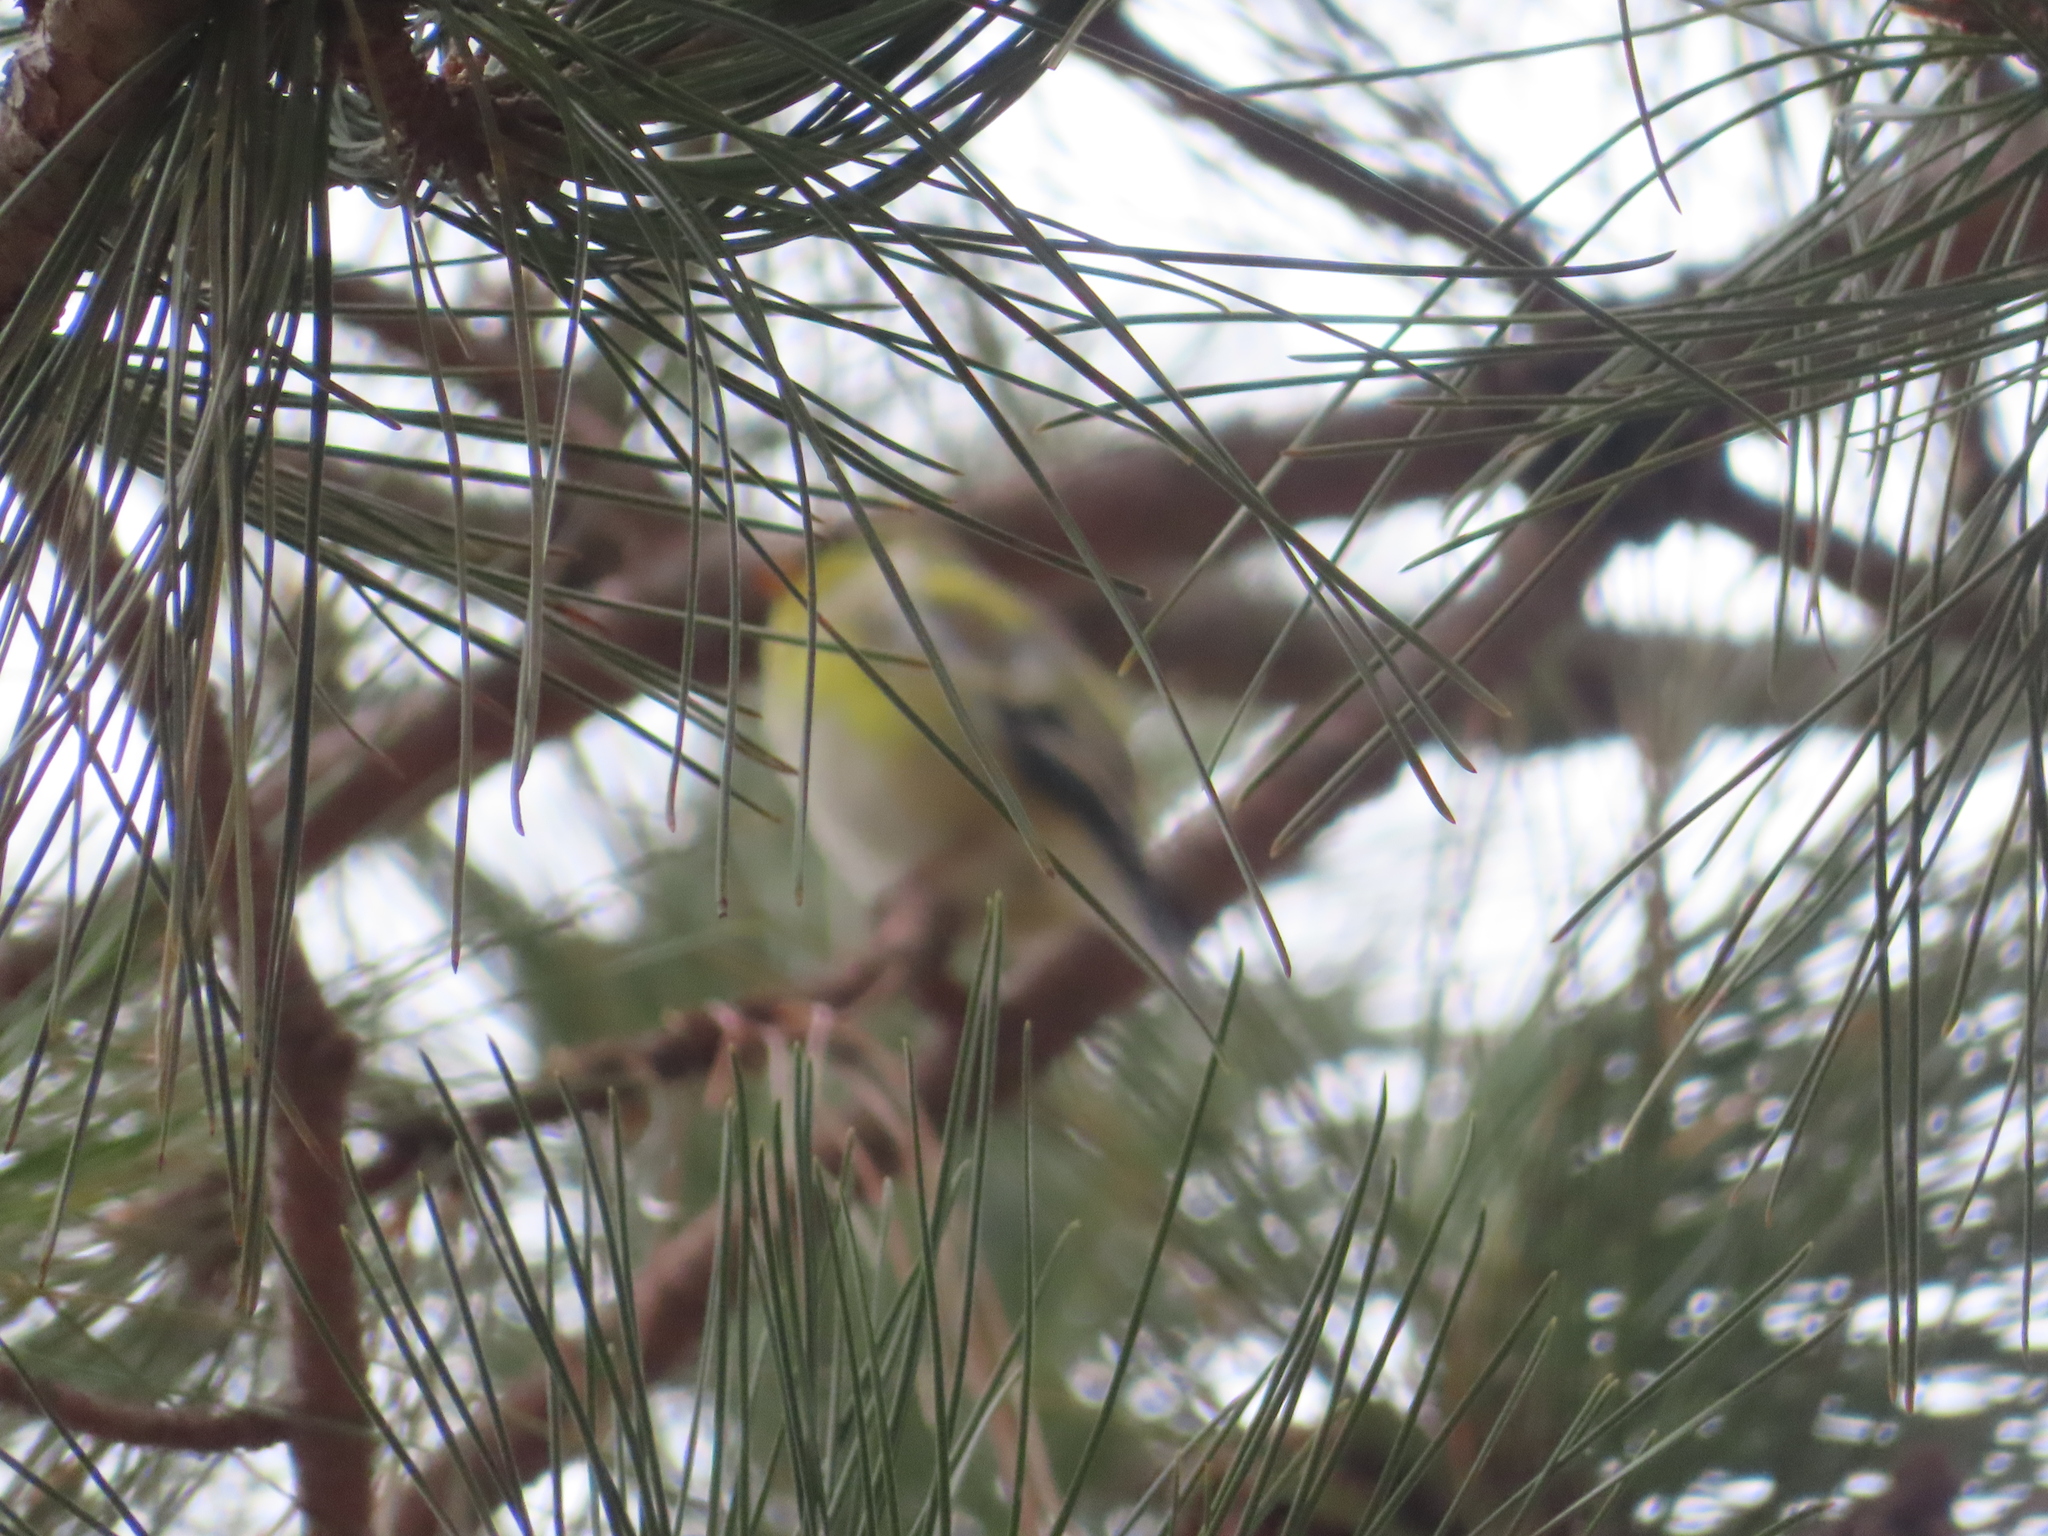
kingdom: Animalia
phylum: Chordata
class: Aves
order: Passeriformes
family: Fringillidae
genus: Spinus
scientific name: Spinus tristis
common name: American goldfinch
